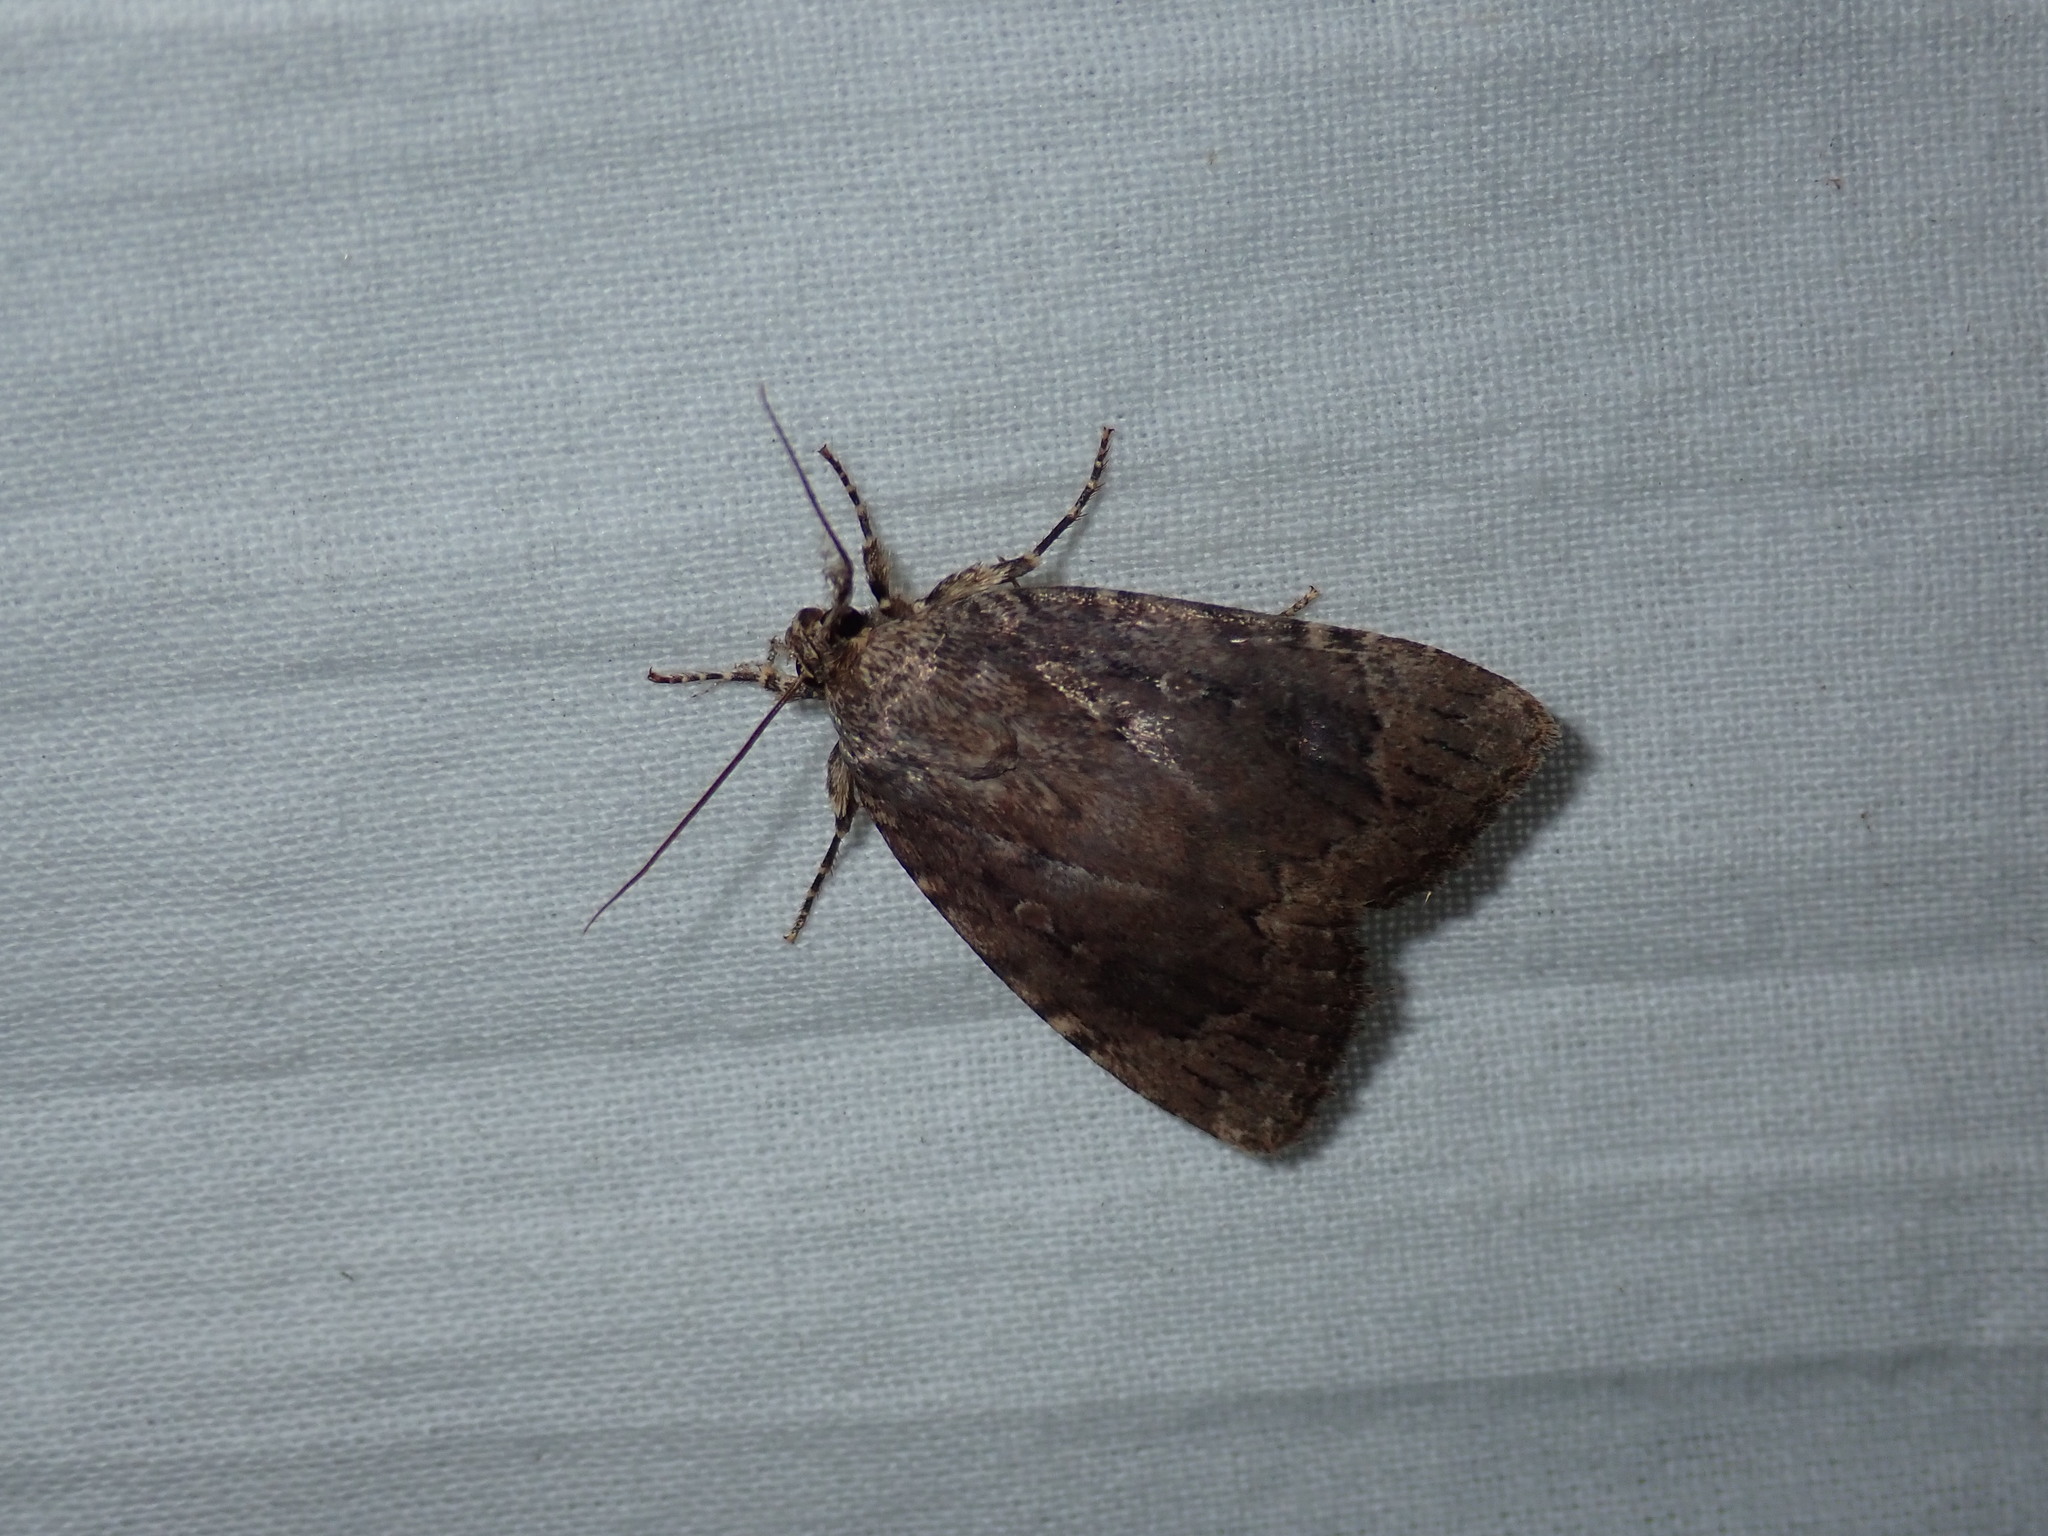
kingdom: Animalia
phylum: Arthropoda
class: Insecta
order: Lepidoptera
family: Noctuidae
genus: Amphipyra
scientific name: Amphipyra pyramidoides
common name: American copper underwing
